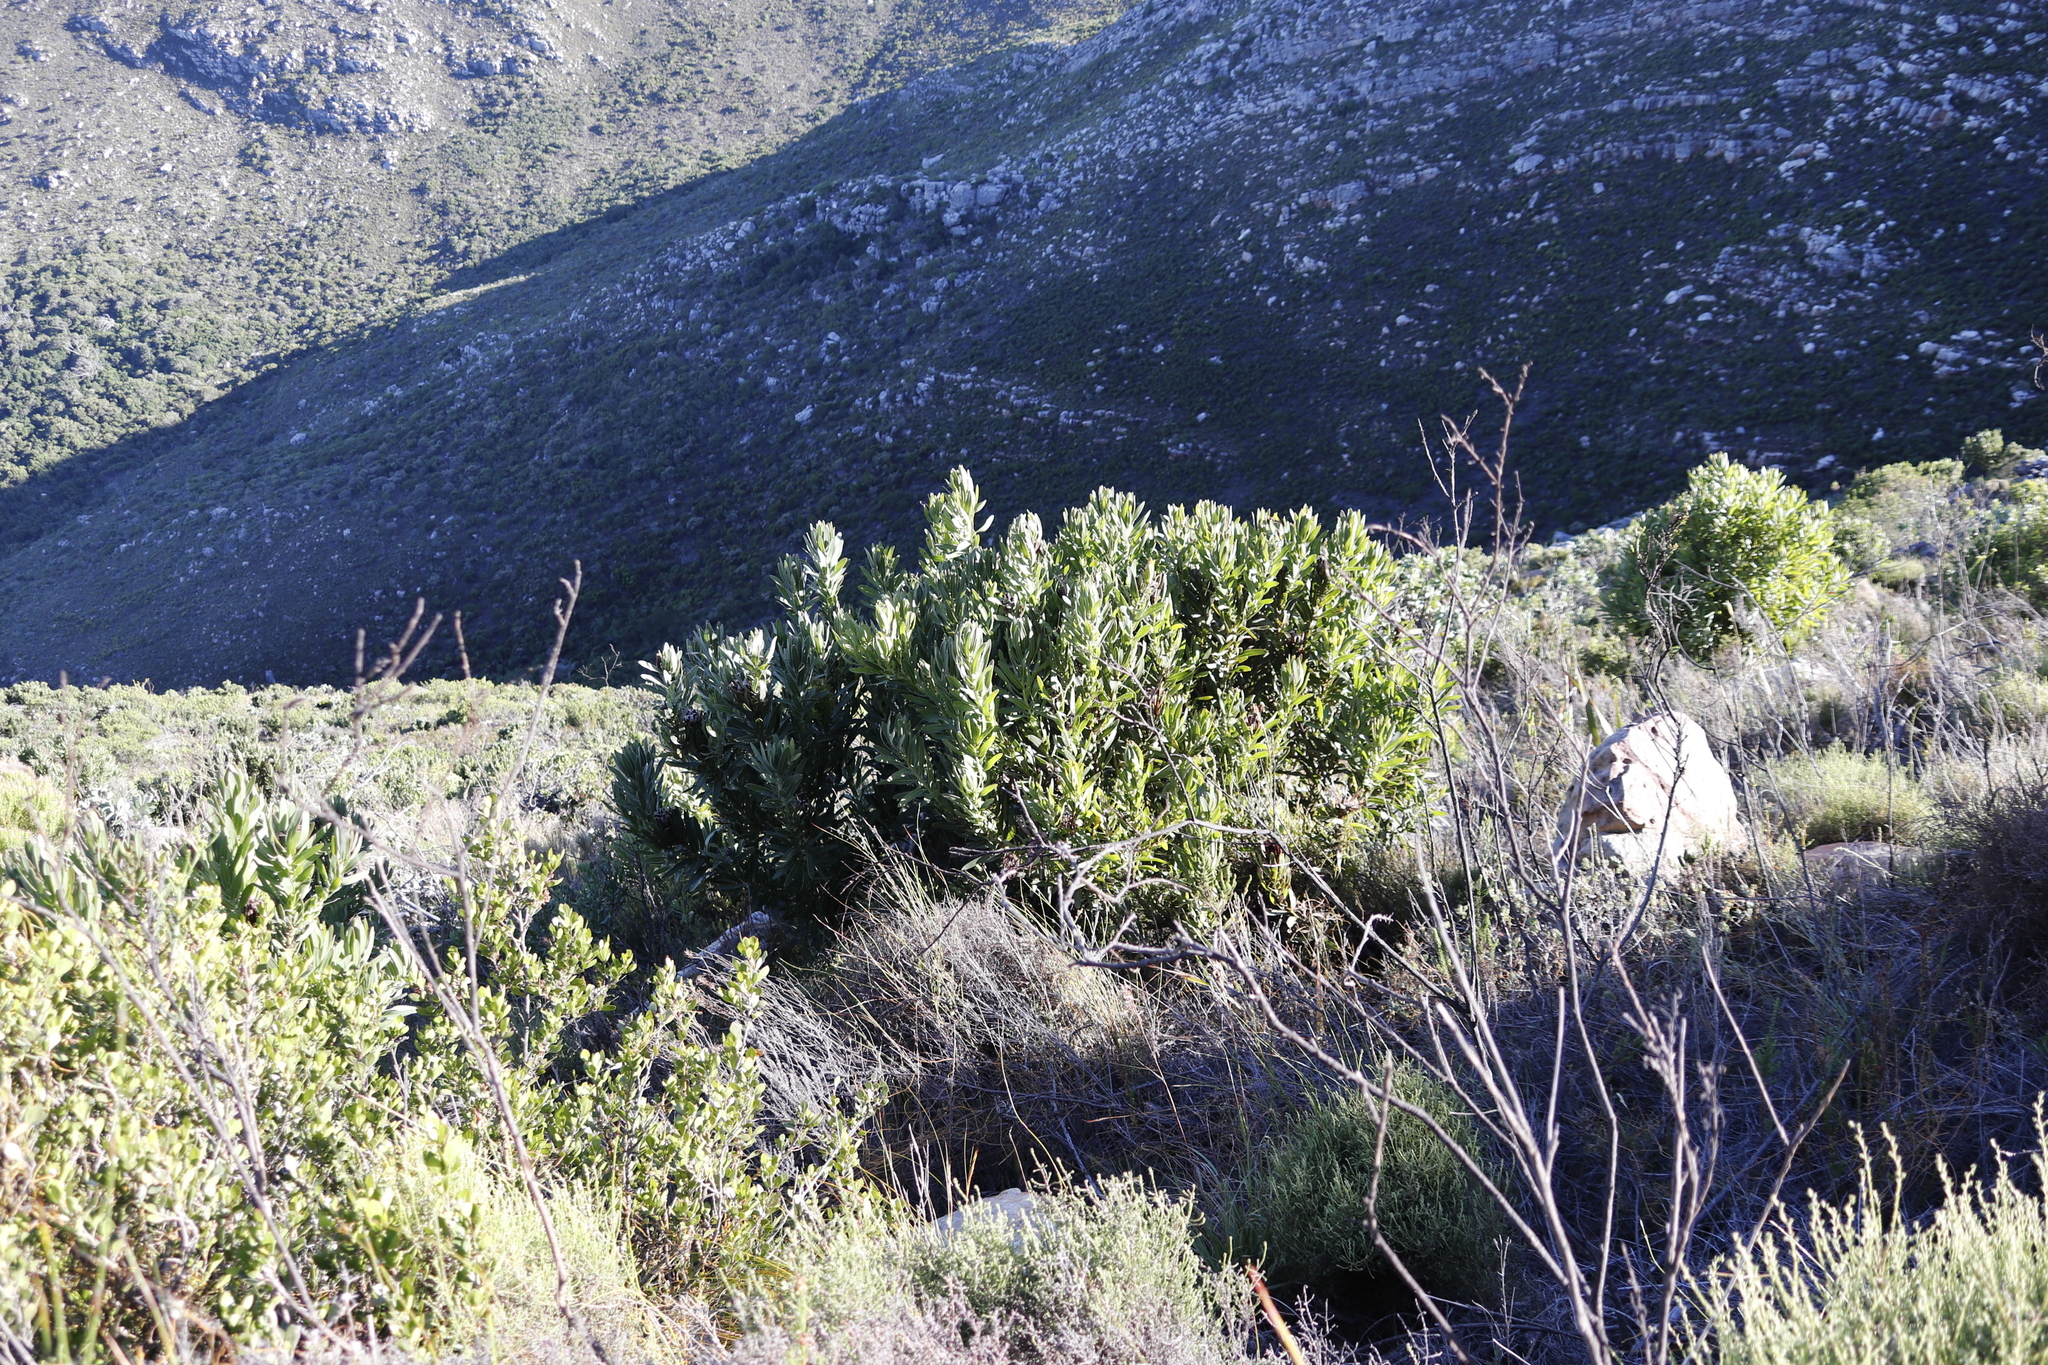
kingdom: Plantae
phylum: Tracheophyta
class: Magnoliopsida
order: Proteales
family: Proteaceae
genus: Protea
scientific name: Protea lepidocarpodendron
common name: Black-bearded protea
